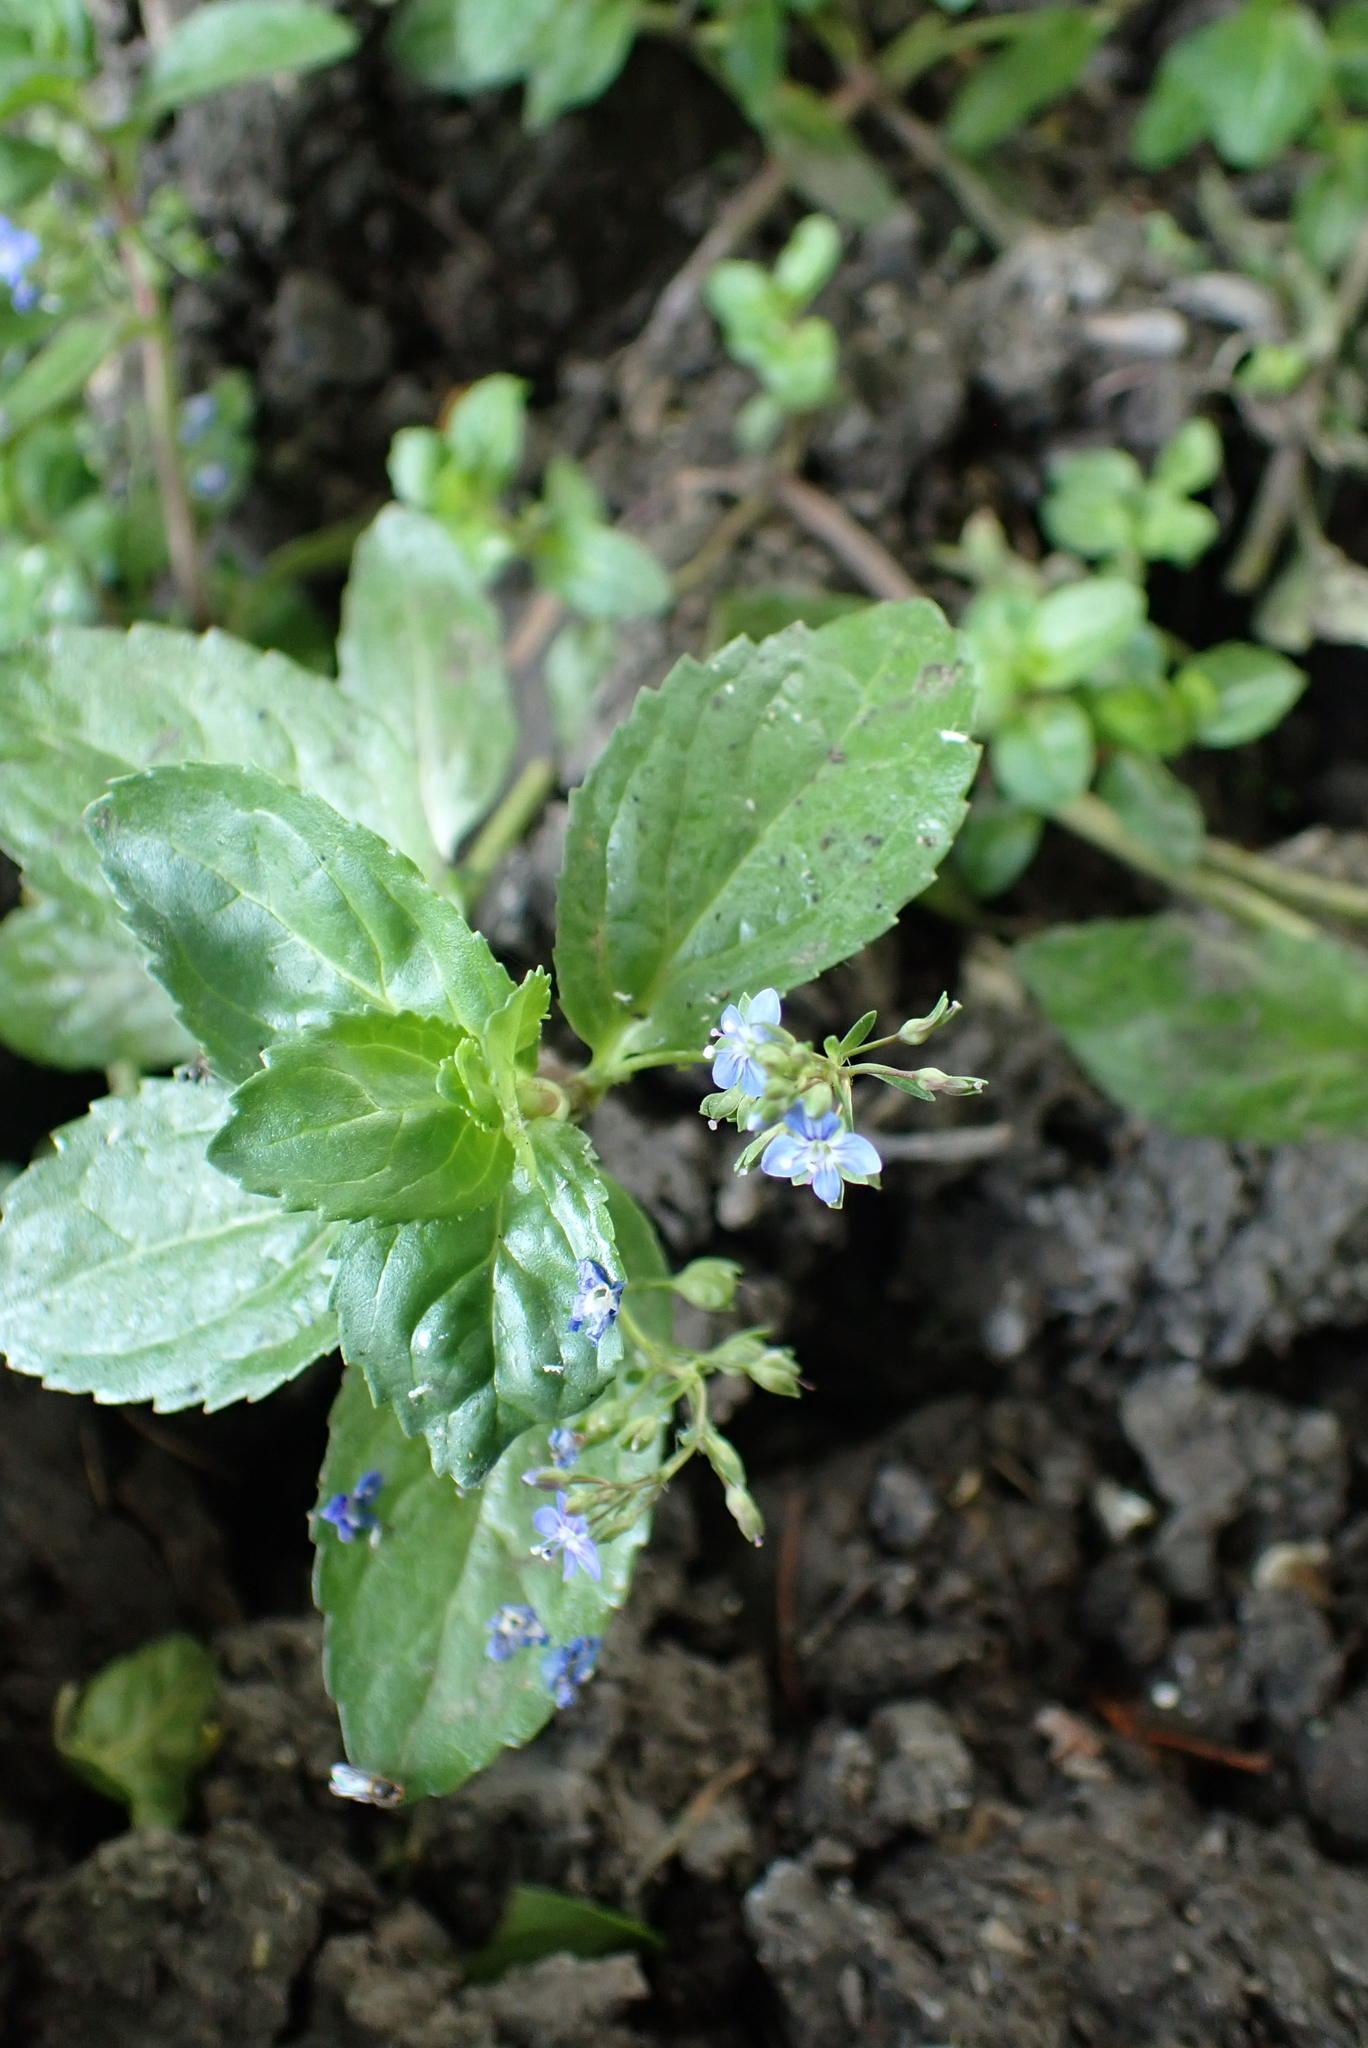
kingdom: Plantae
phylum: Tracheophyta
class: Magnoliopsida
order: Lamiales
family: Plantaginaceae
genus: Veronica
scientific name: Veronica beccabunga
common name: Brooklime
